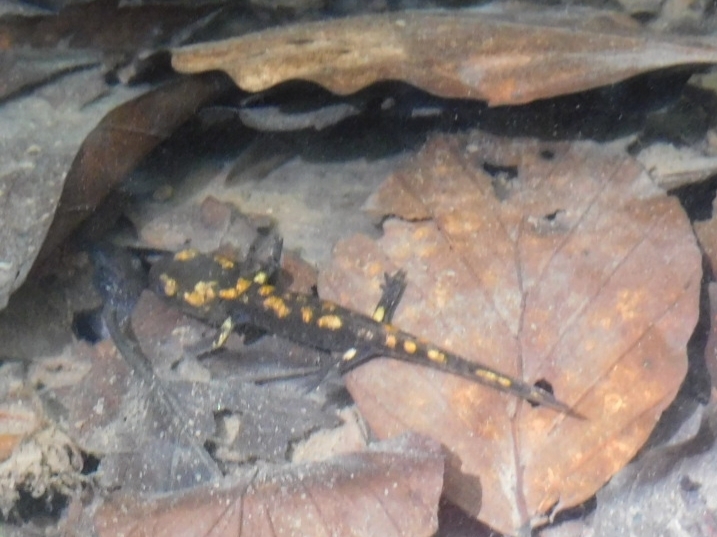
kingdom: Animalia
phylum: Chordata
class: Amphibia
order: Caudata
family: Salamandridae
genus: Salamandra
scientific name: Salamandra salamandra
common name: Fire salamander
